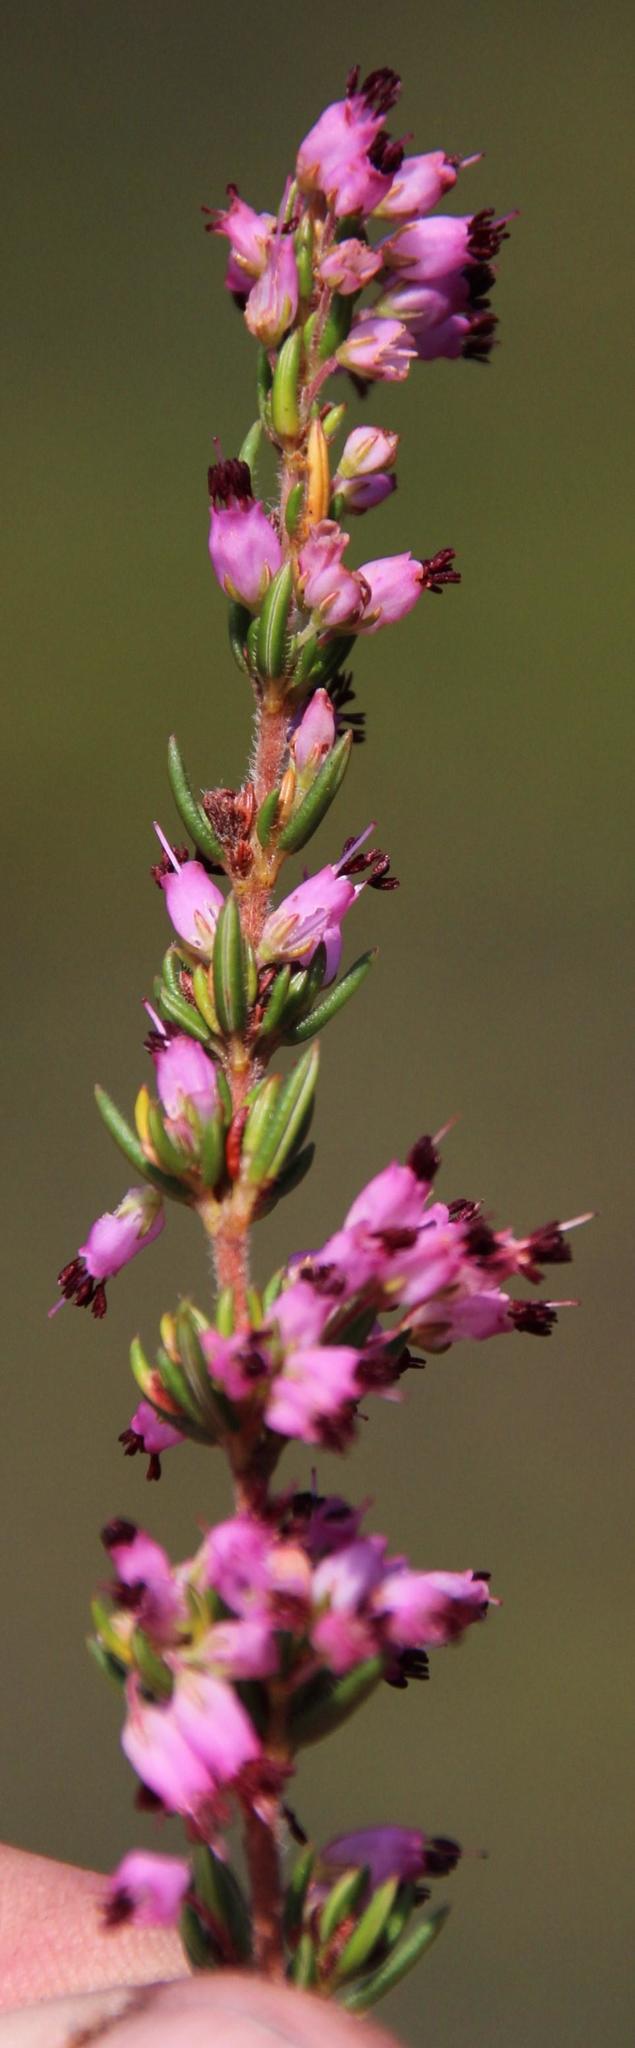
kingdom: Plantae
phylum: Tracheophyta
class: Magnoliopsida
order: Ericales
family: Ericaceae
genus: Erica
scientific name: Erica nudiflora
